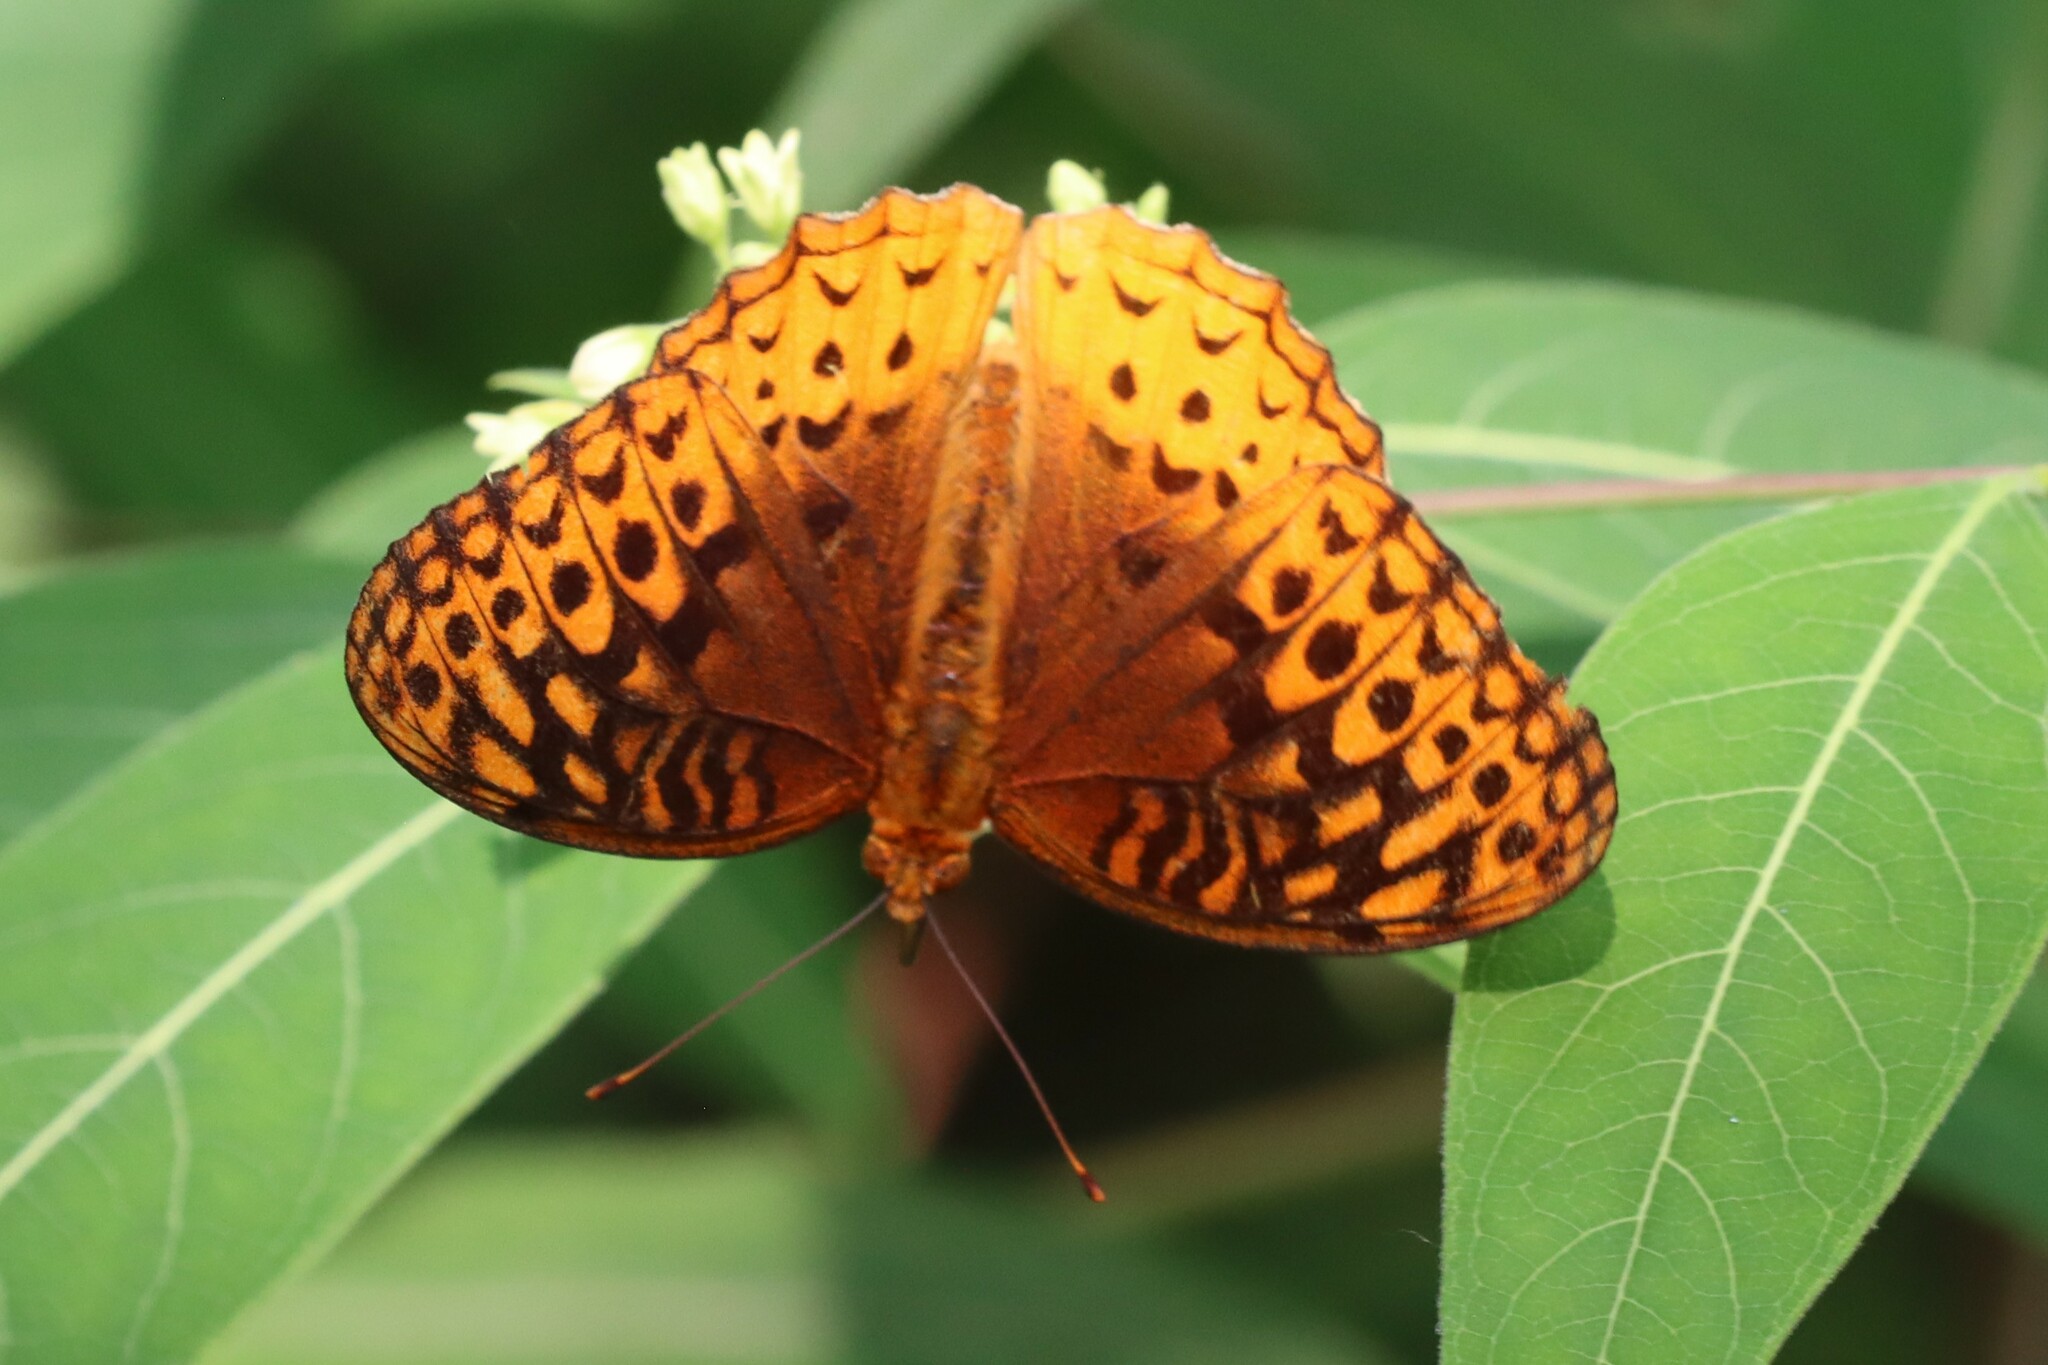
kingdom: Animalia
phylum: Arthropoda
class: Insecta
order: Lepidoptera
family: Nymphalidae
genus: Speyeria
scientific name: Speyeria cybele
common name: Great spangled fritillary
